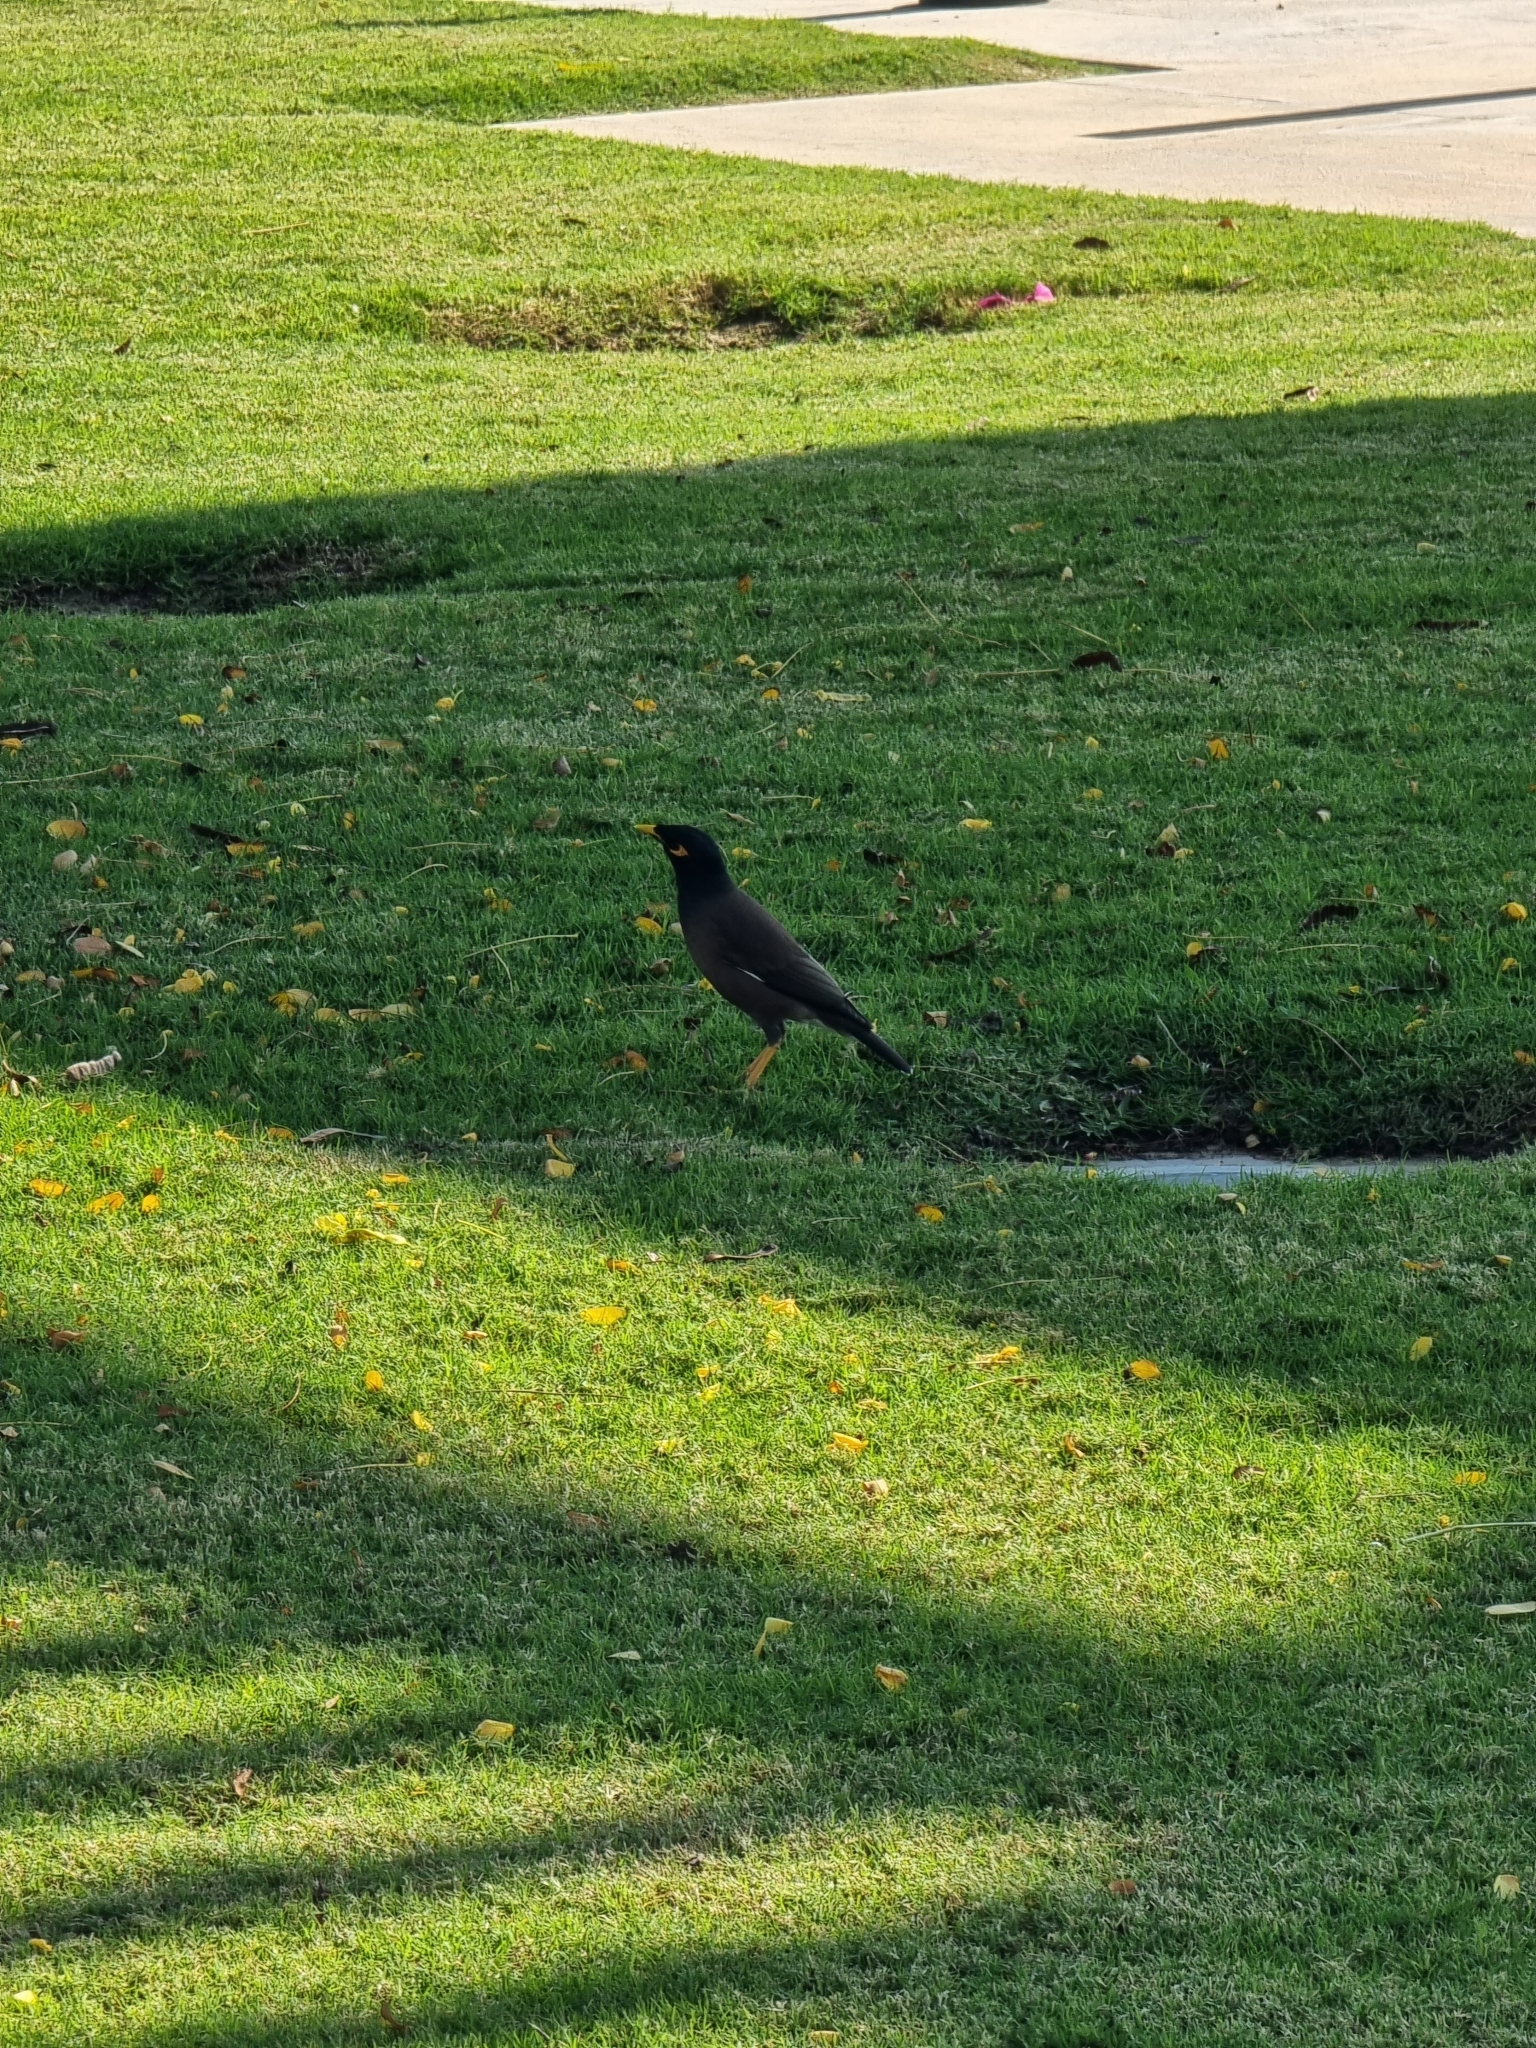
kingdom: Animalia
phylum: Chordata
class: Aves
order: Passeriformes
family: Sturnidae
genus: Acridotheres
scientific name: Acridotheres tristis
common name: Common myna
